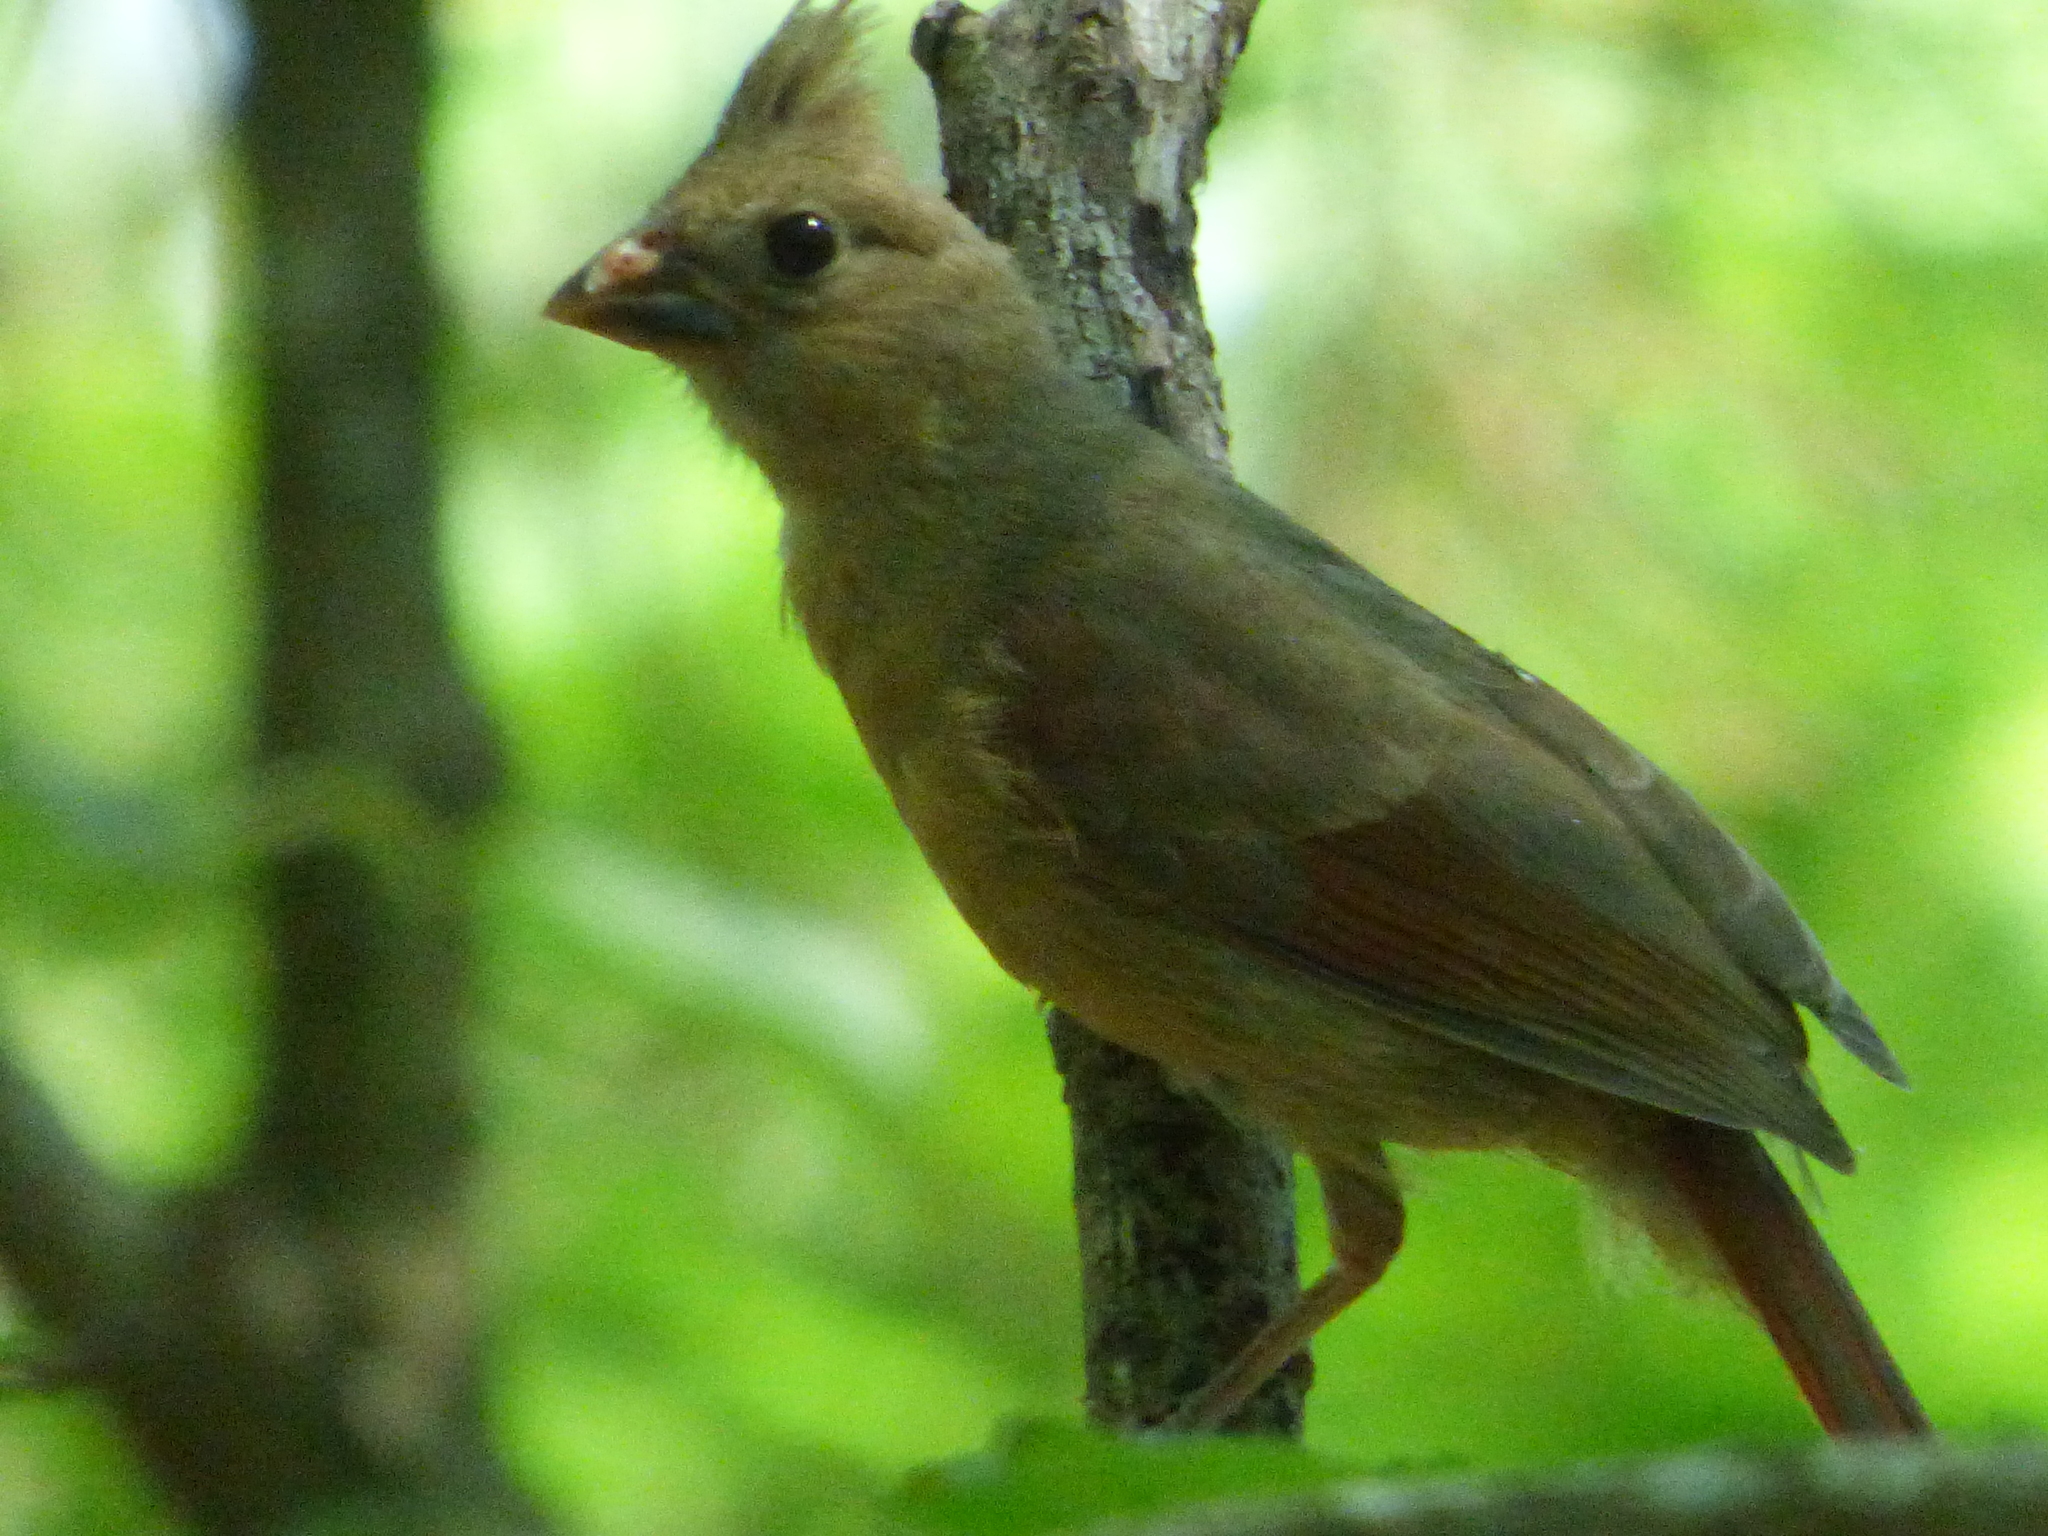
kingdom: Animalia
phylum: Chordata
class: Aves
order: Passeriformes
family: Cardinalidae
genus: Cardinalis
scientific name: Cardinalis cardinalis
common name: Northern cardinal
